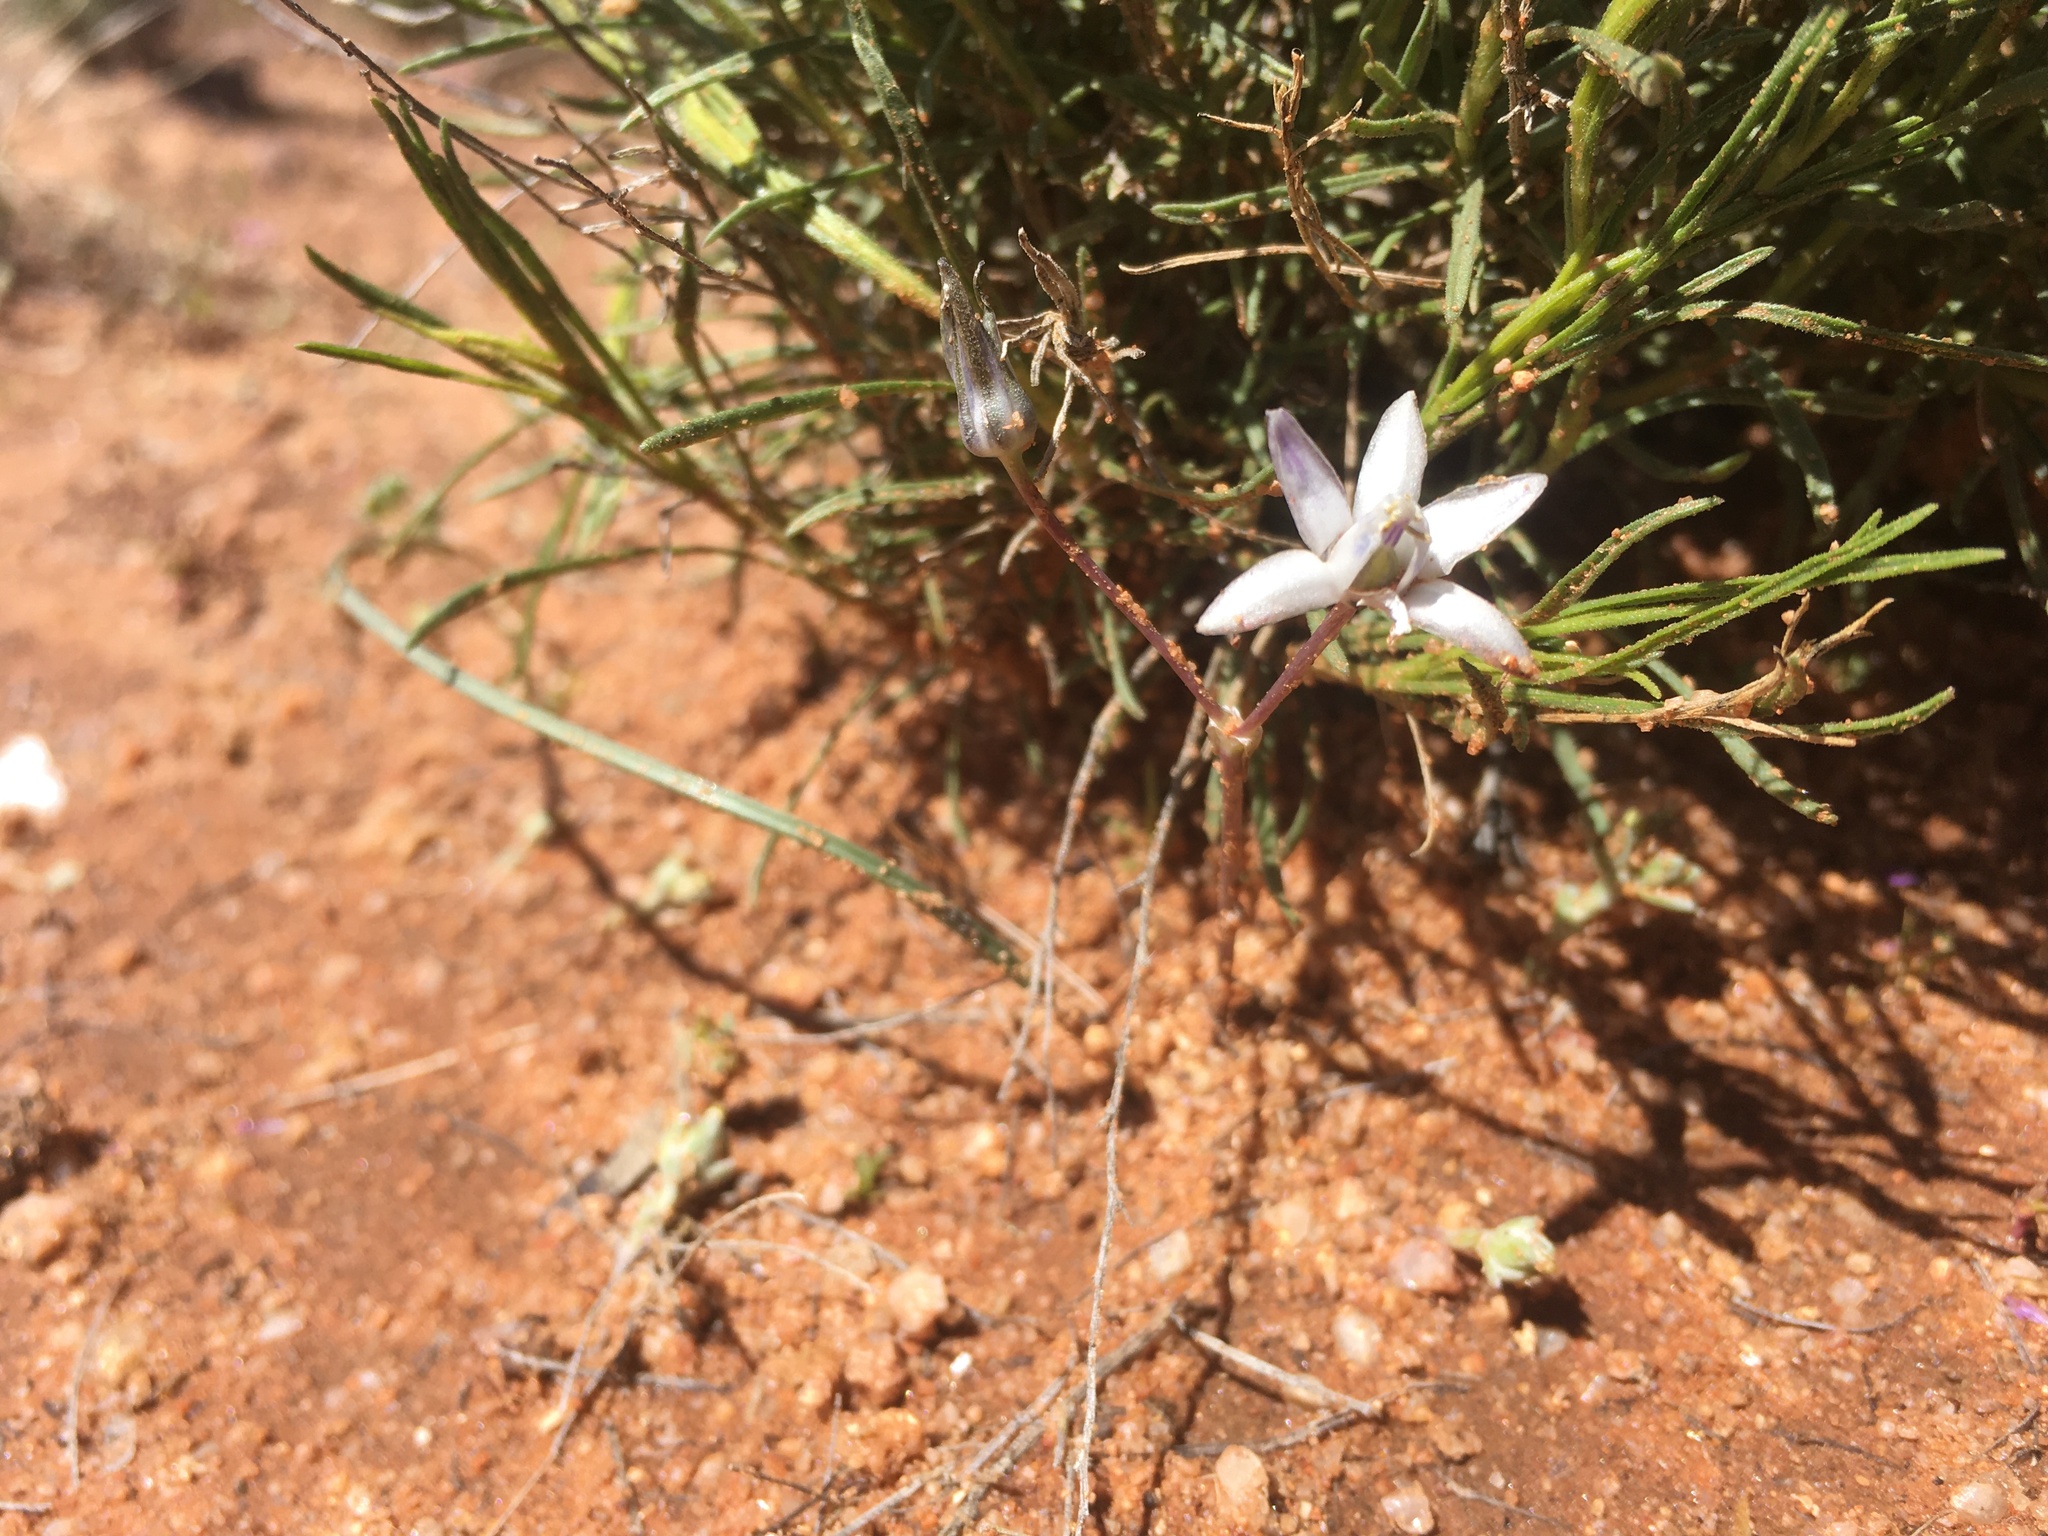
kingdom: Plantae
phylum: Tracheophyta
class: Liliopsida
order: Asparagales
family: Asparagaceae
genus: Muilla
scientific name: Muilla lordsburgana
